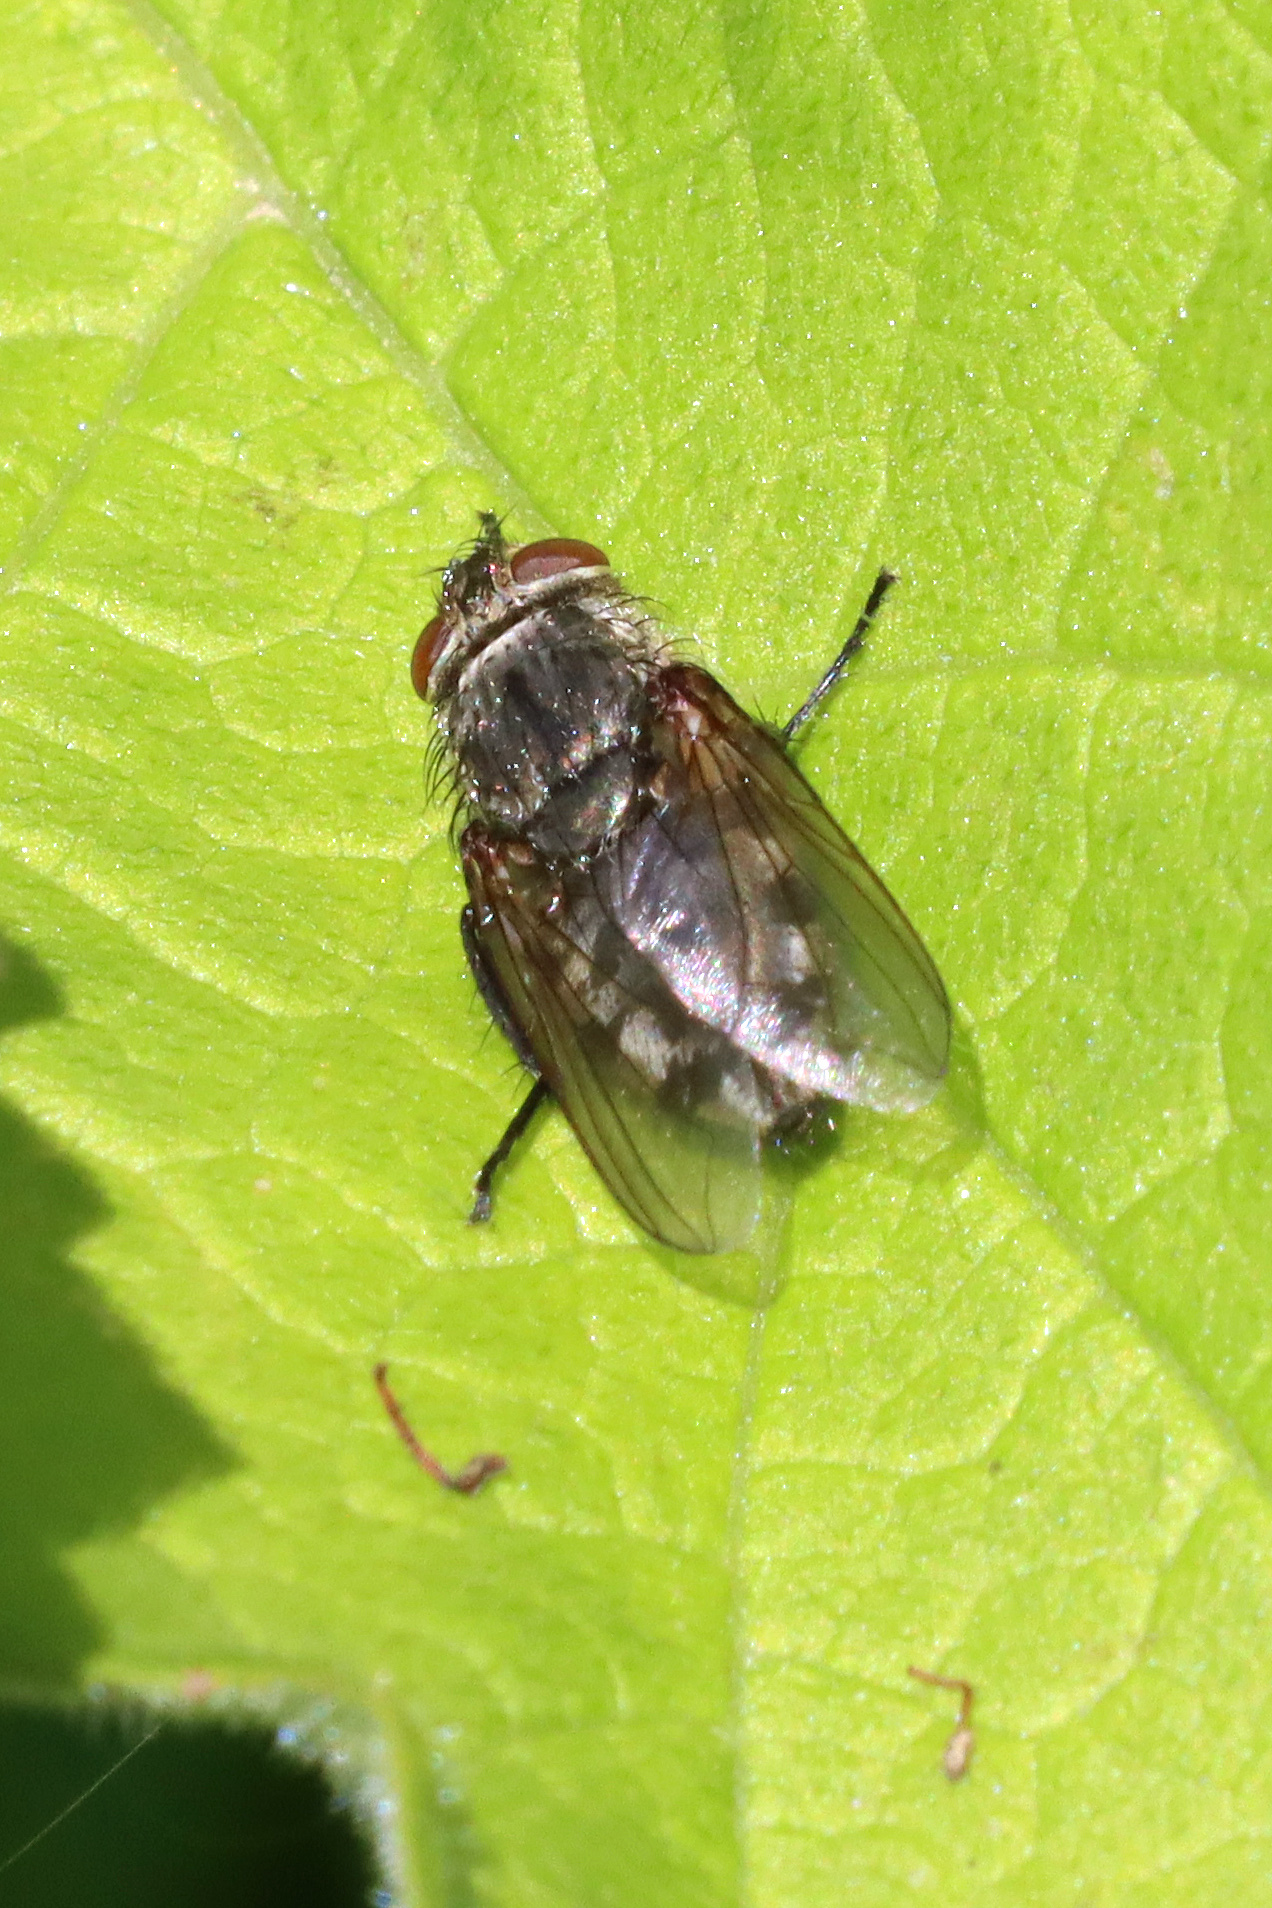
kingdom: Animalia
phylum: Arthropoda
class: Insecta
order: Diptera
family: Polleniidae
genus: Pollenia
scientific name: Pollenia
